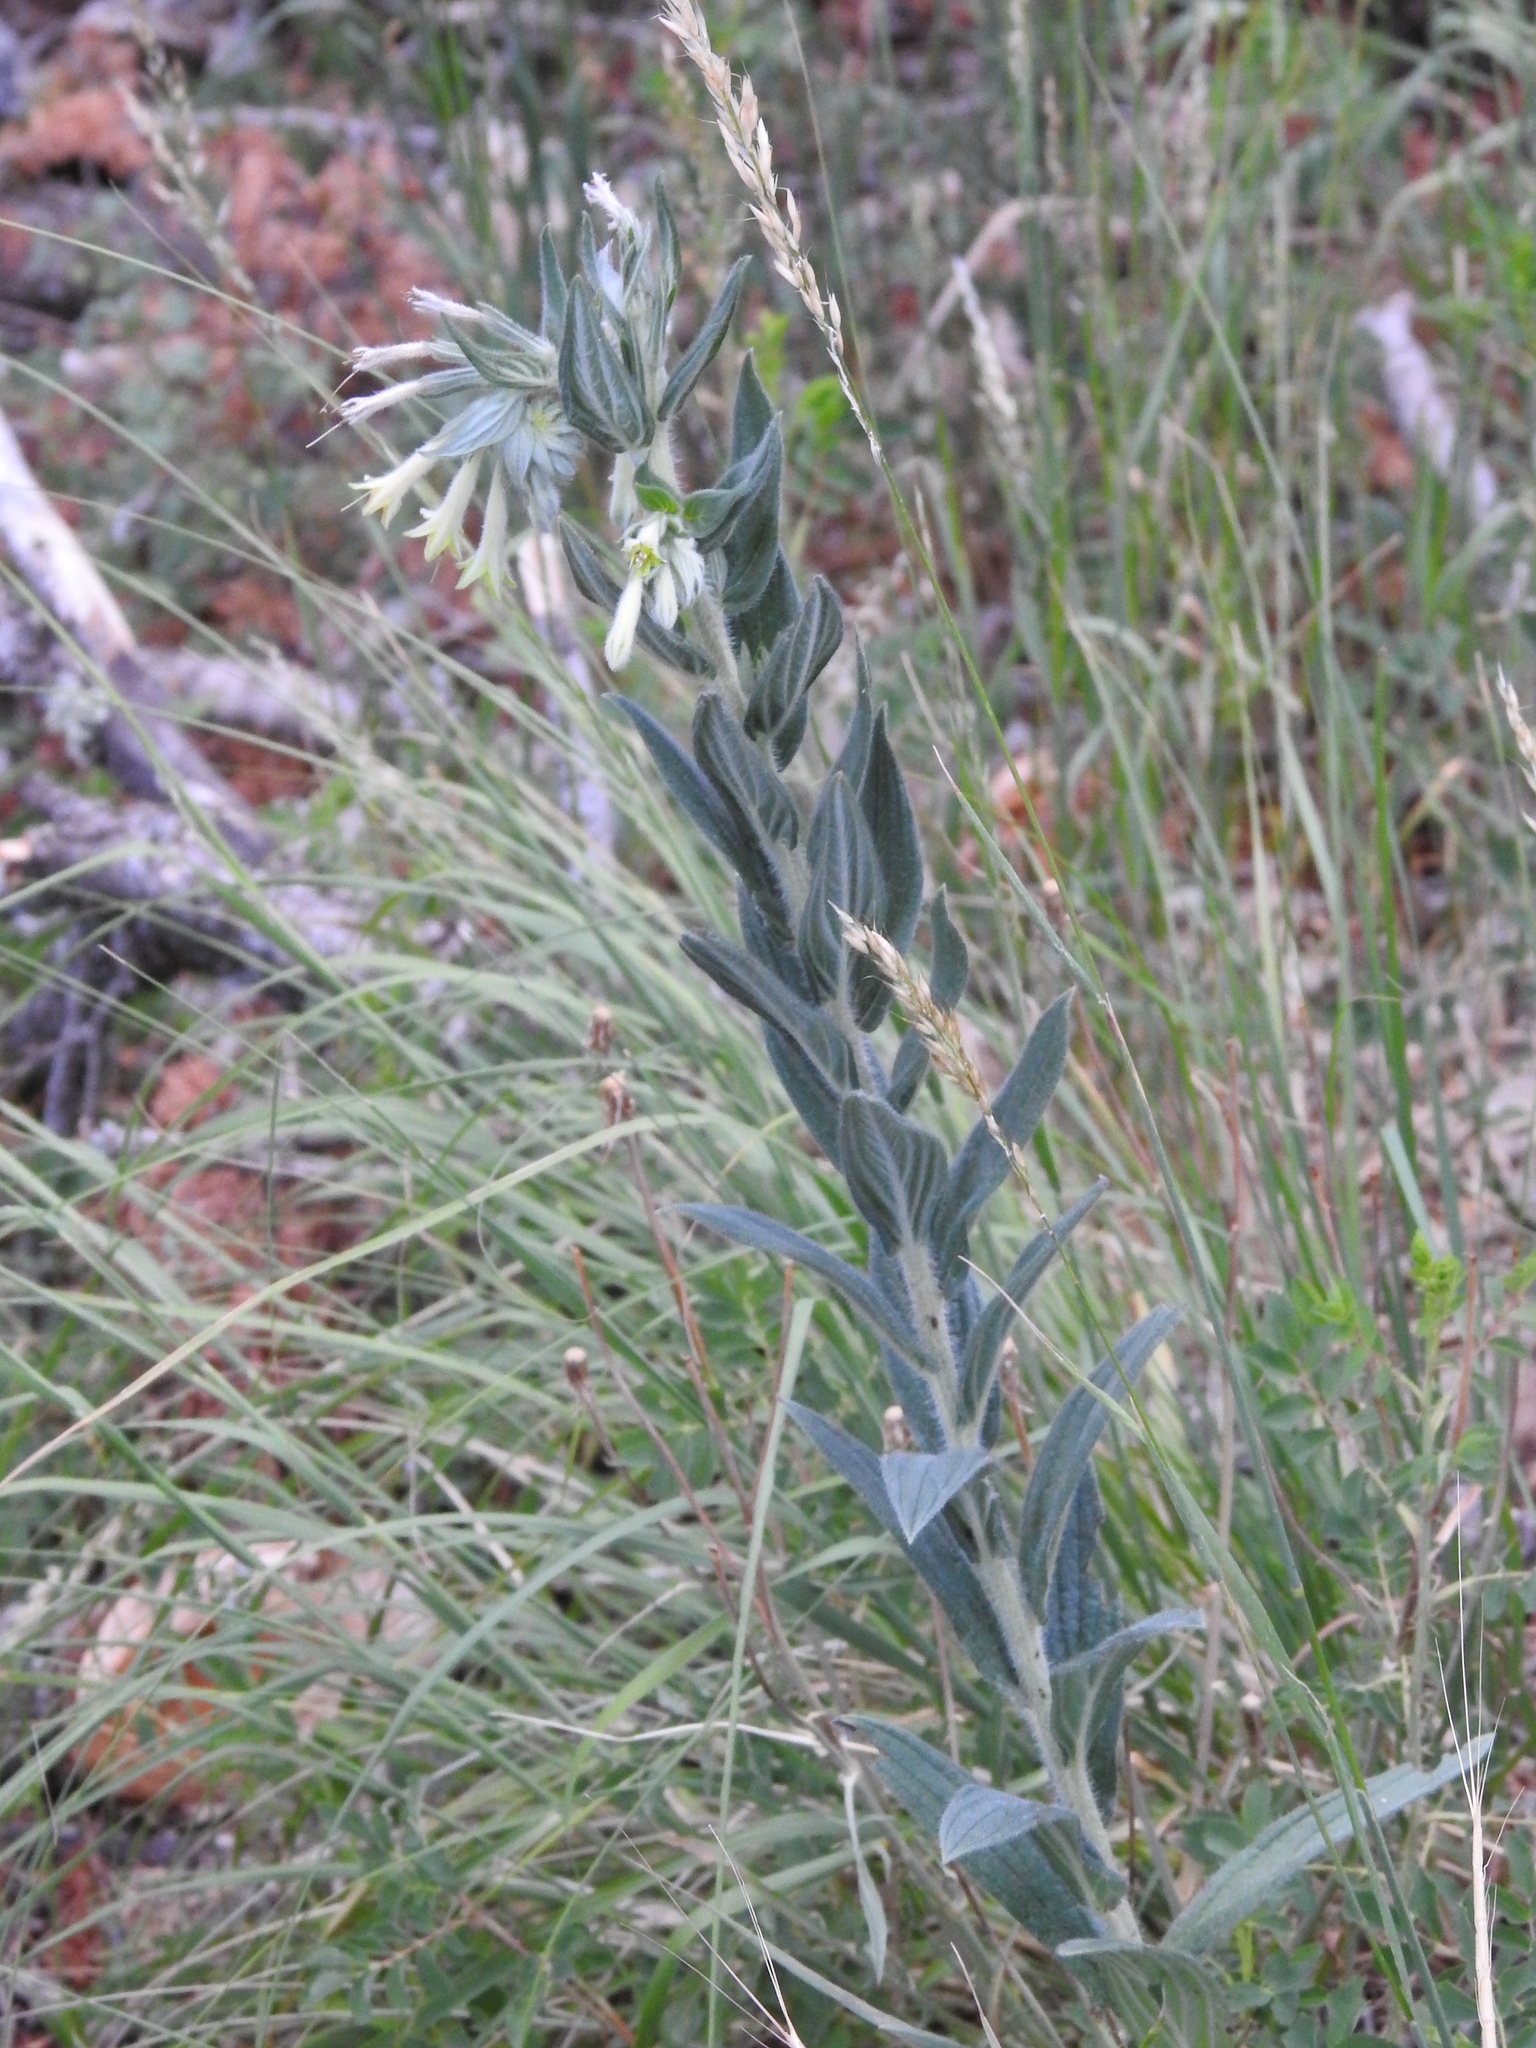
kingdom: Plantae
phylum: Tracheophyta
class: Magnoliopsida
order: Solanales
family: Solanaceae
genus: Nicotiana
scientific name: Nicotiana obtusifolia
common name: Desert tobacco
